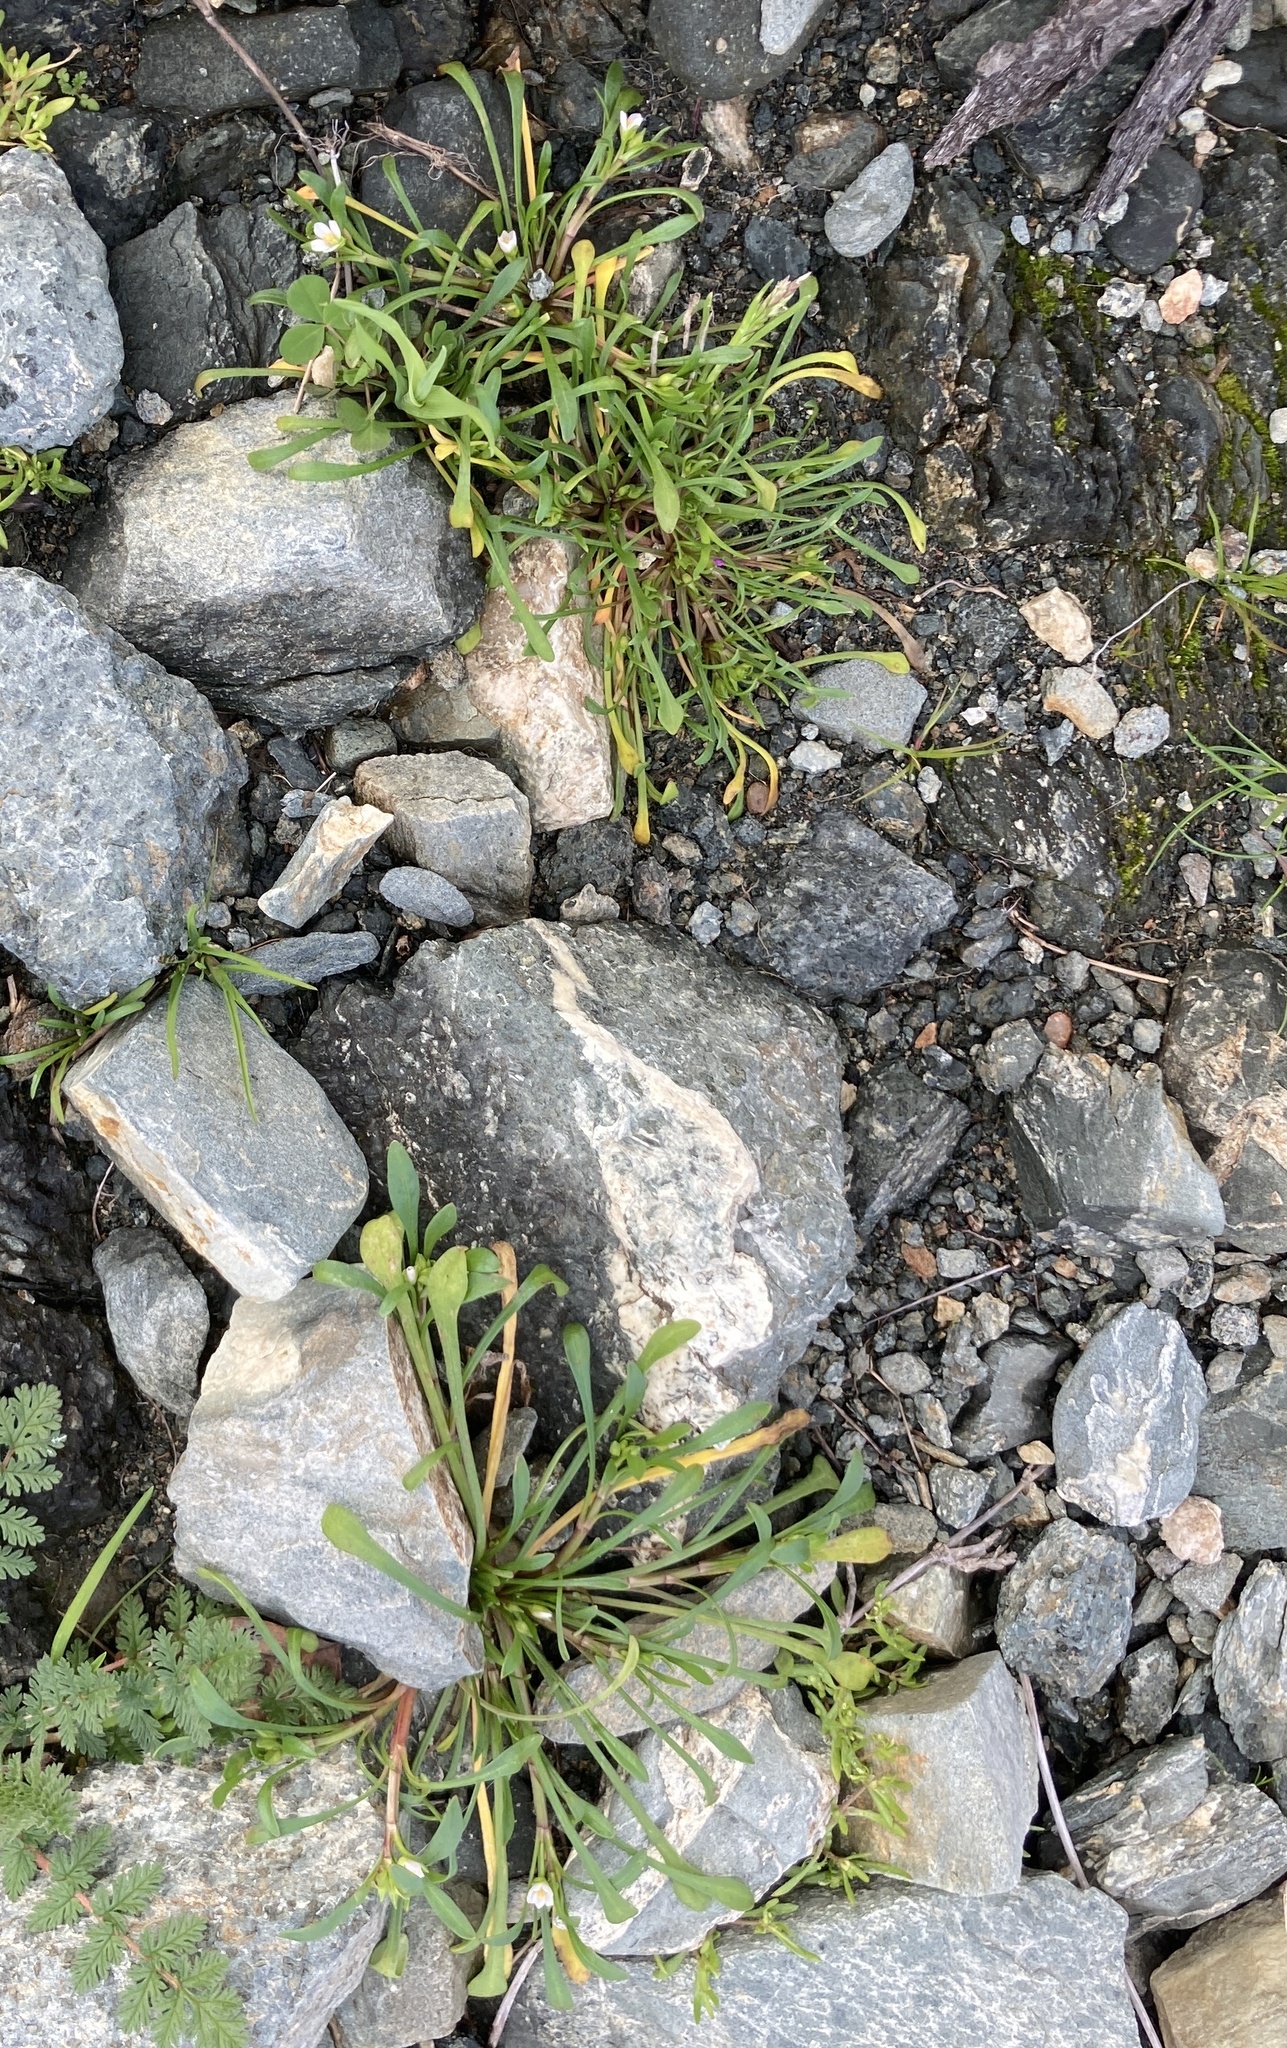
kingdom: Plantae
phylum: Tracheophyta
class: Magnoliopsida
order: Caryophyllales
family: Montiaceae
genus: Calandrinia
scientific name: Calandrinia menziesii
